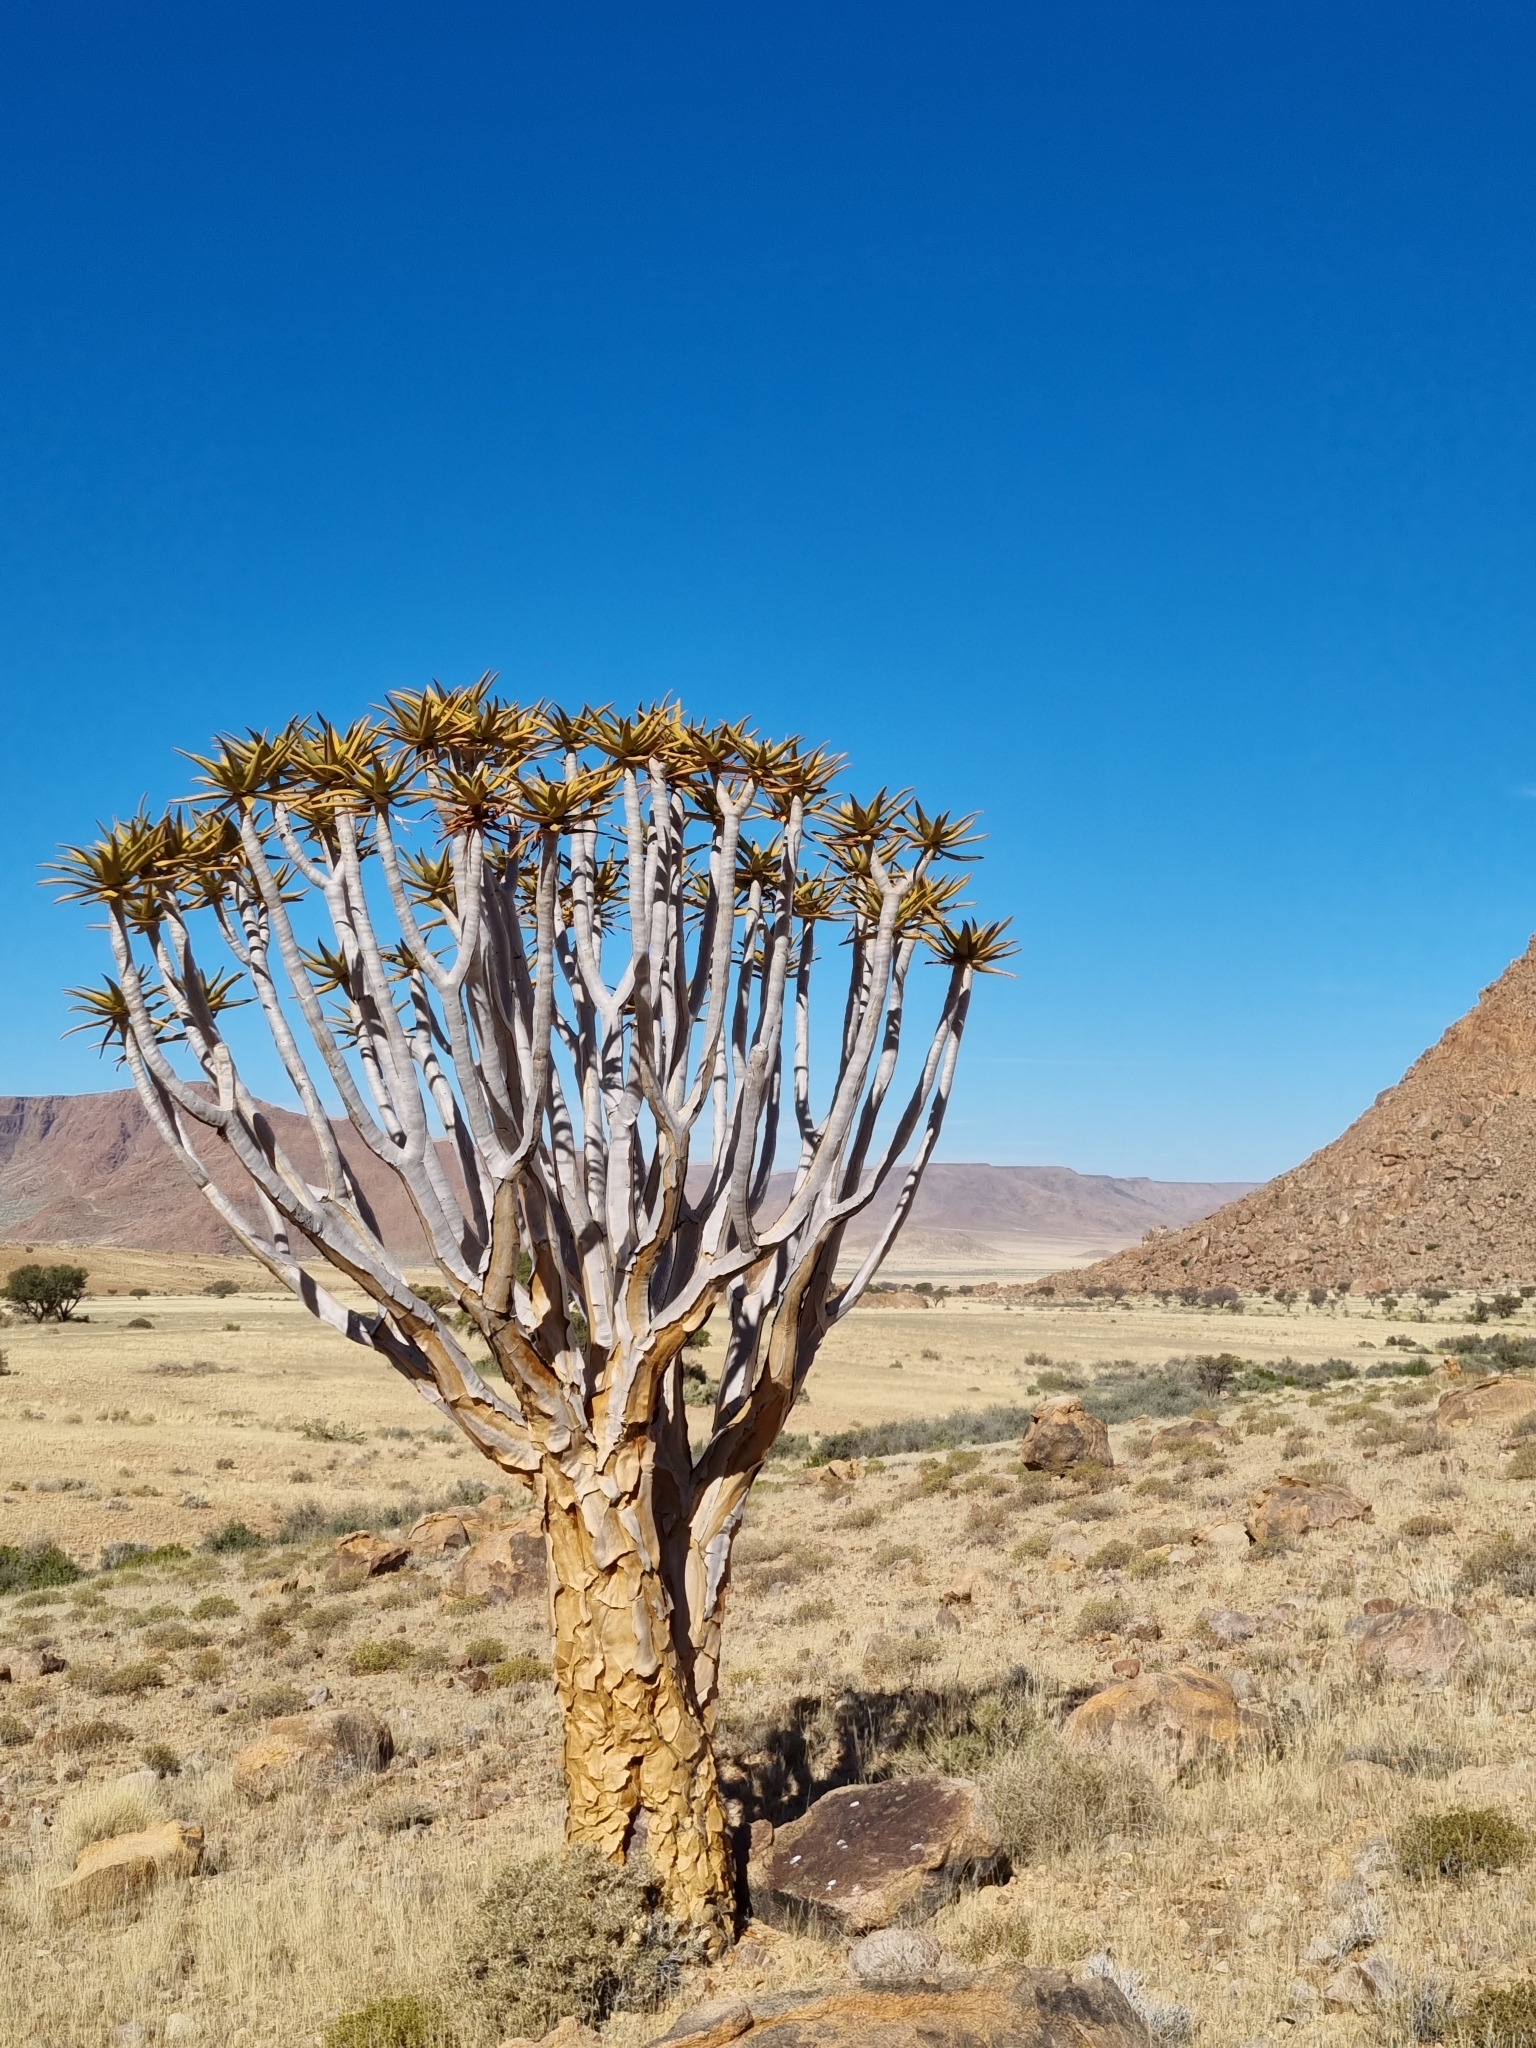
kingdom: Plantae
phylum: Tracheophyta
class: Liliopsida
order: Asparagales
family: Asphodelaceae
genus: Aloidendron
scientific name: Aloidendron dichotomum
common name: Quiver tree
